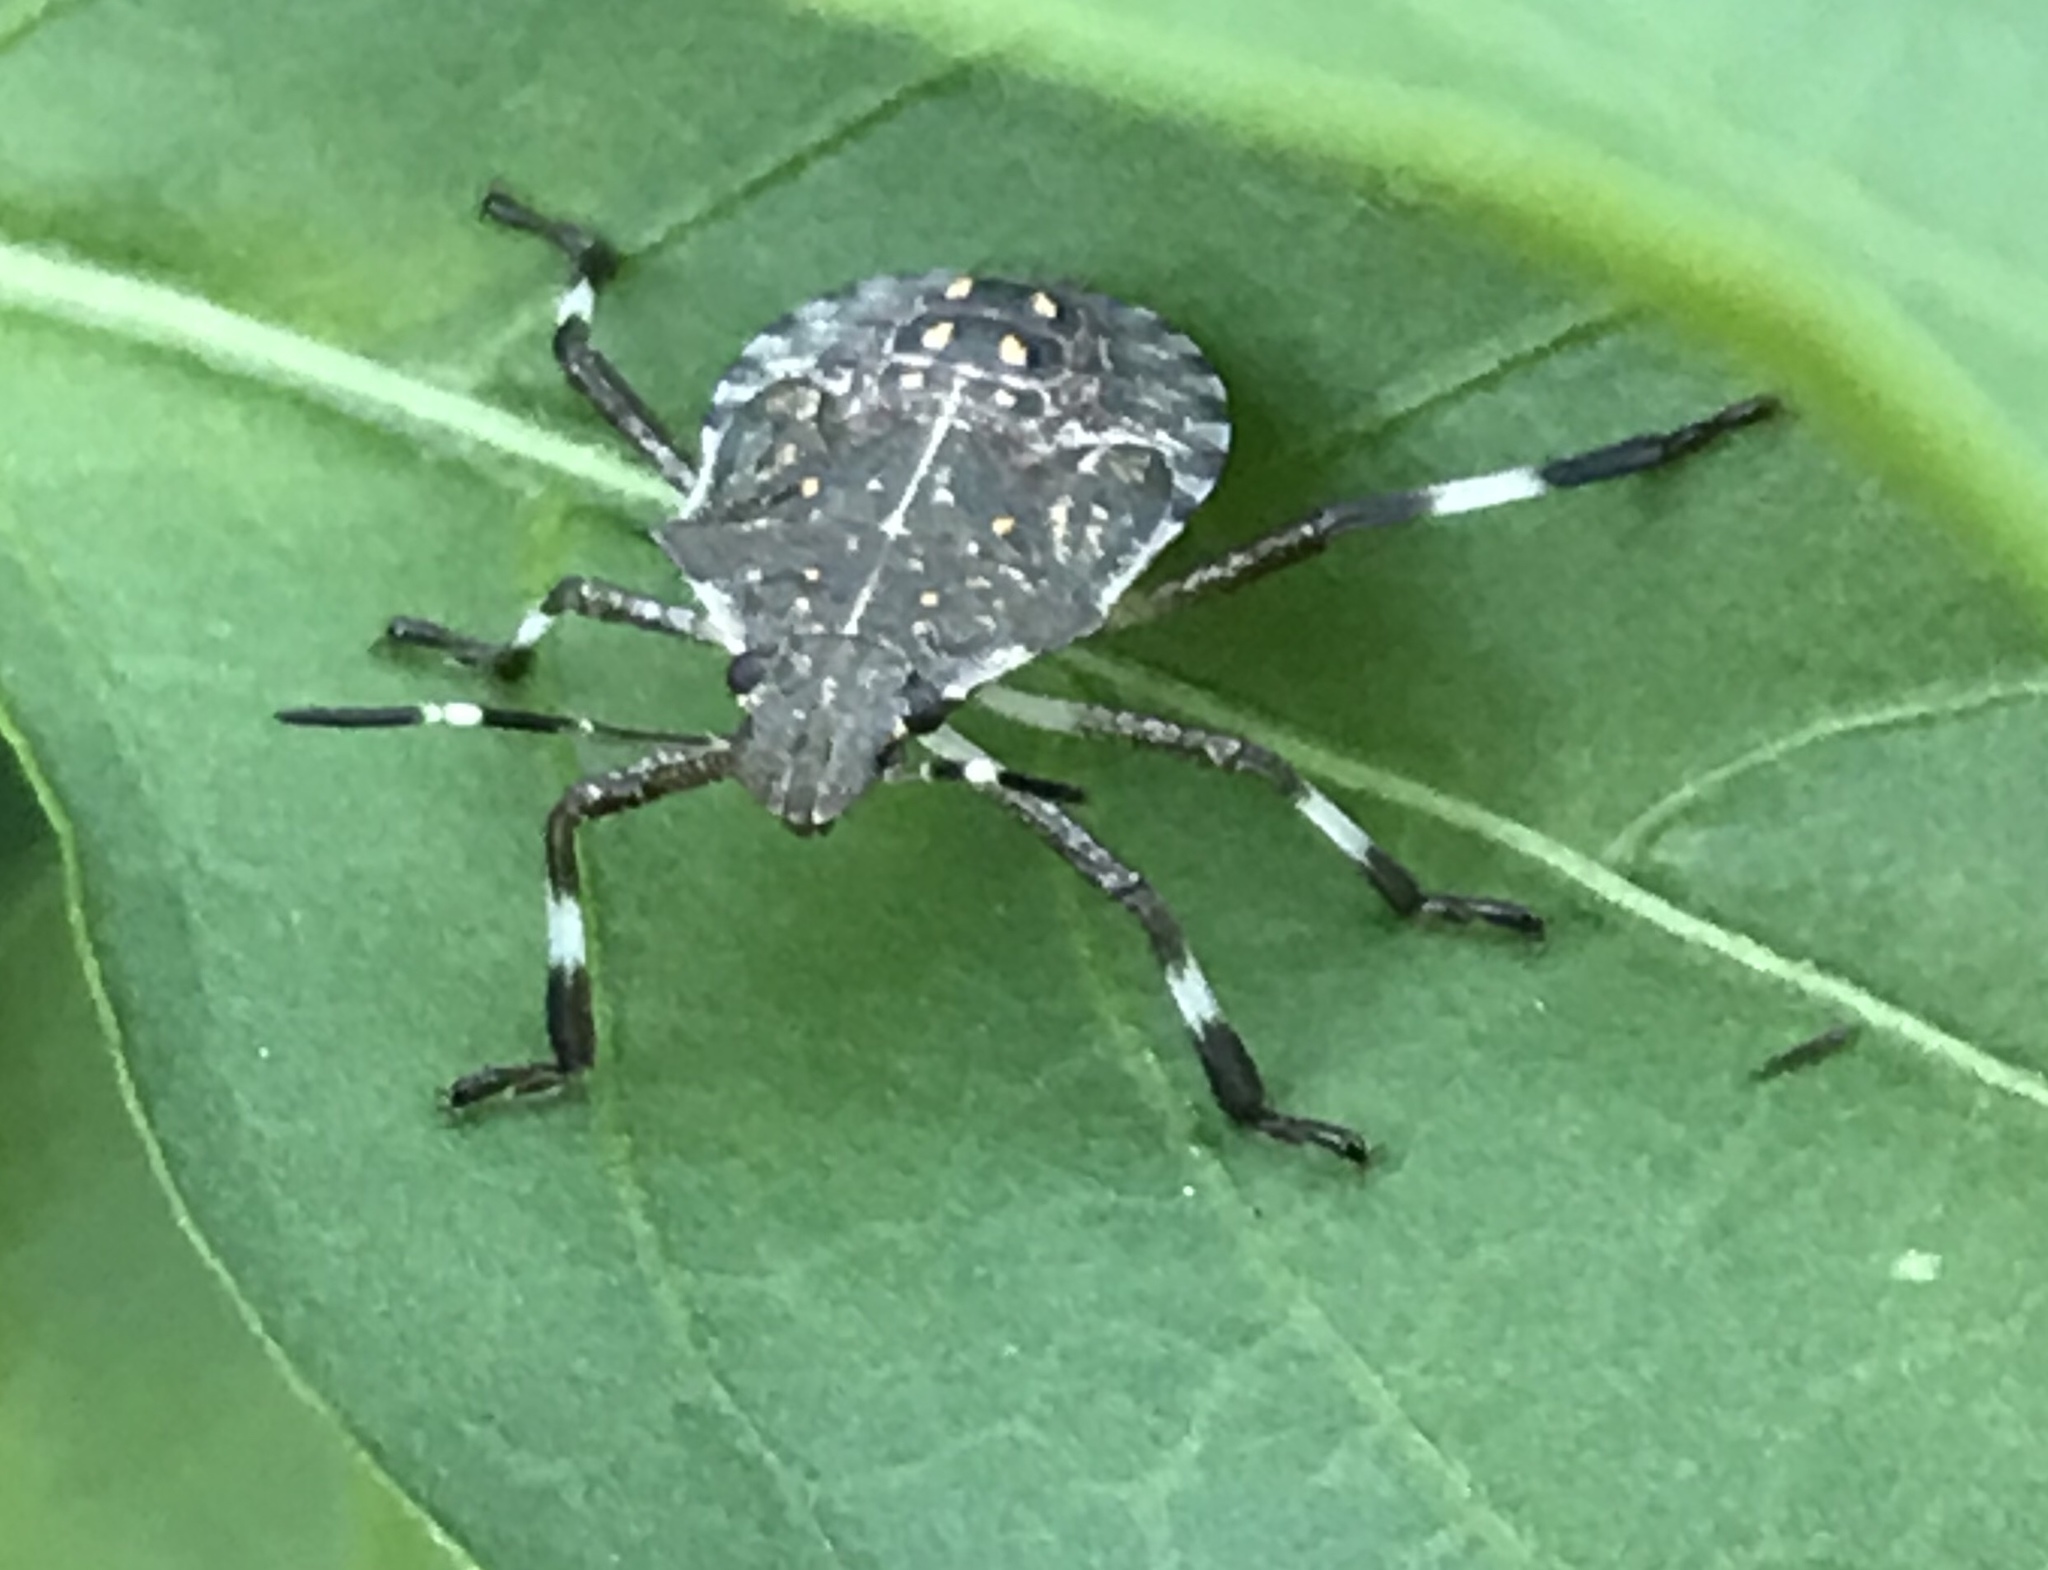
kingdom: Animalia
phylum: Arthropoda
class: Insecta
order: Hemiptera
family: Pentatomidae
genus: Halyomorpha
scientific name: Halyomorpha halys
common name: Brown marmorated stink bug
